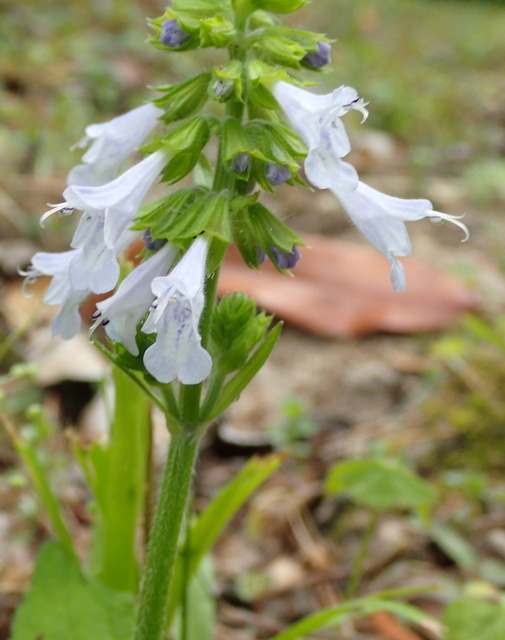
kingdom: Plantae
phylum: Tracheophyta
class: Magnoliopsida
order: Lamiales
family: Lamiaceae
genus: Salvia
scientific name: Salvia lyrata
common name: Cancerweed
